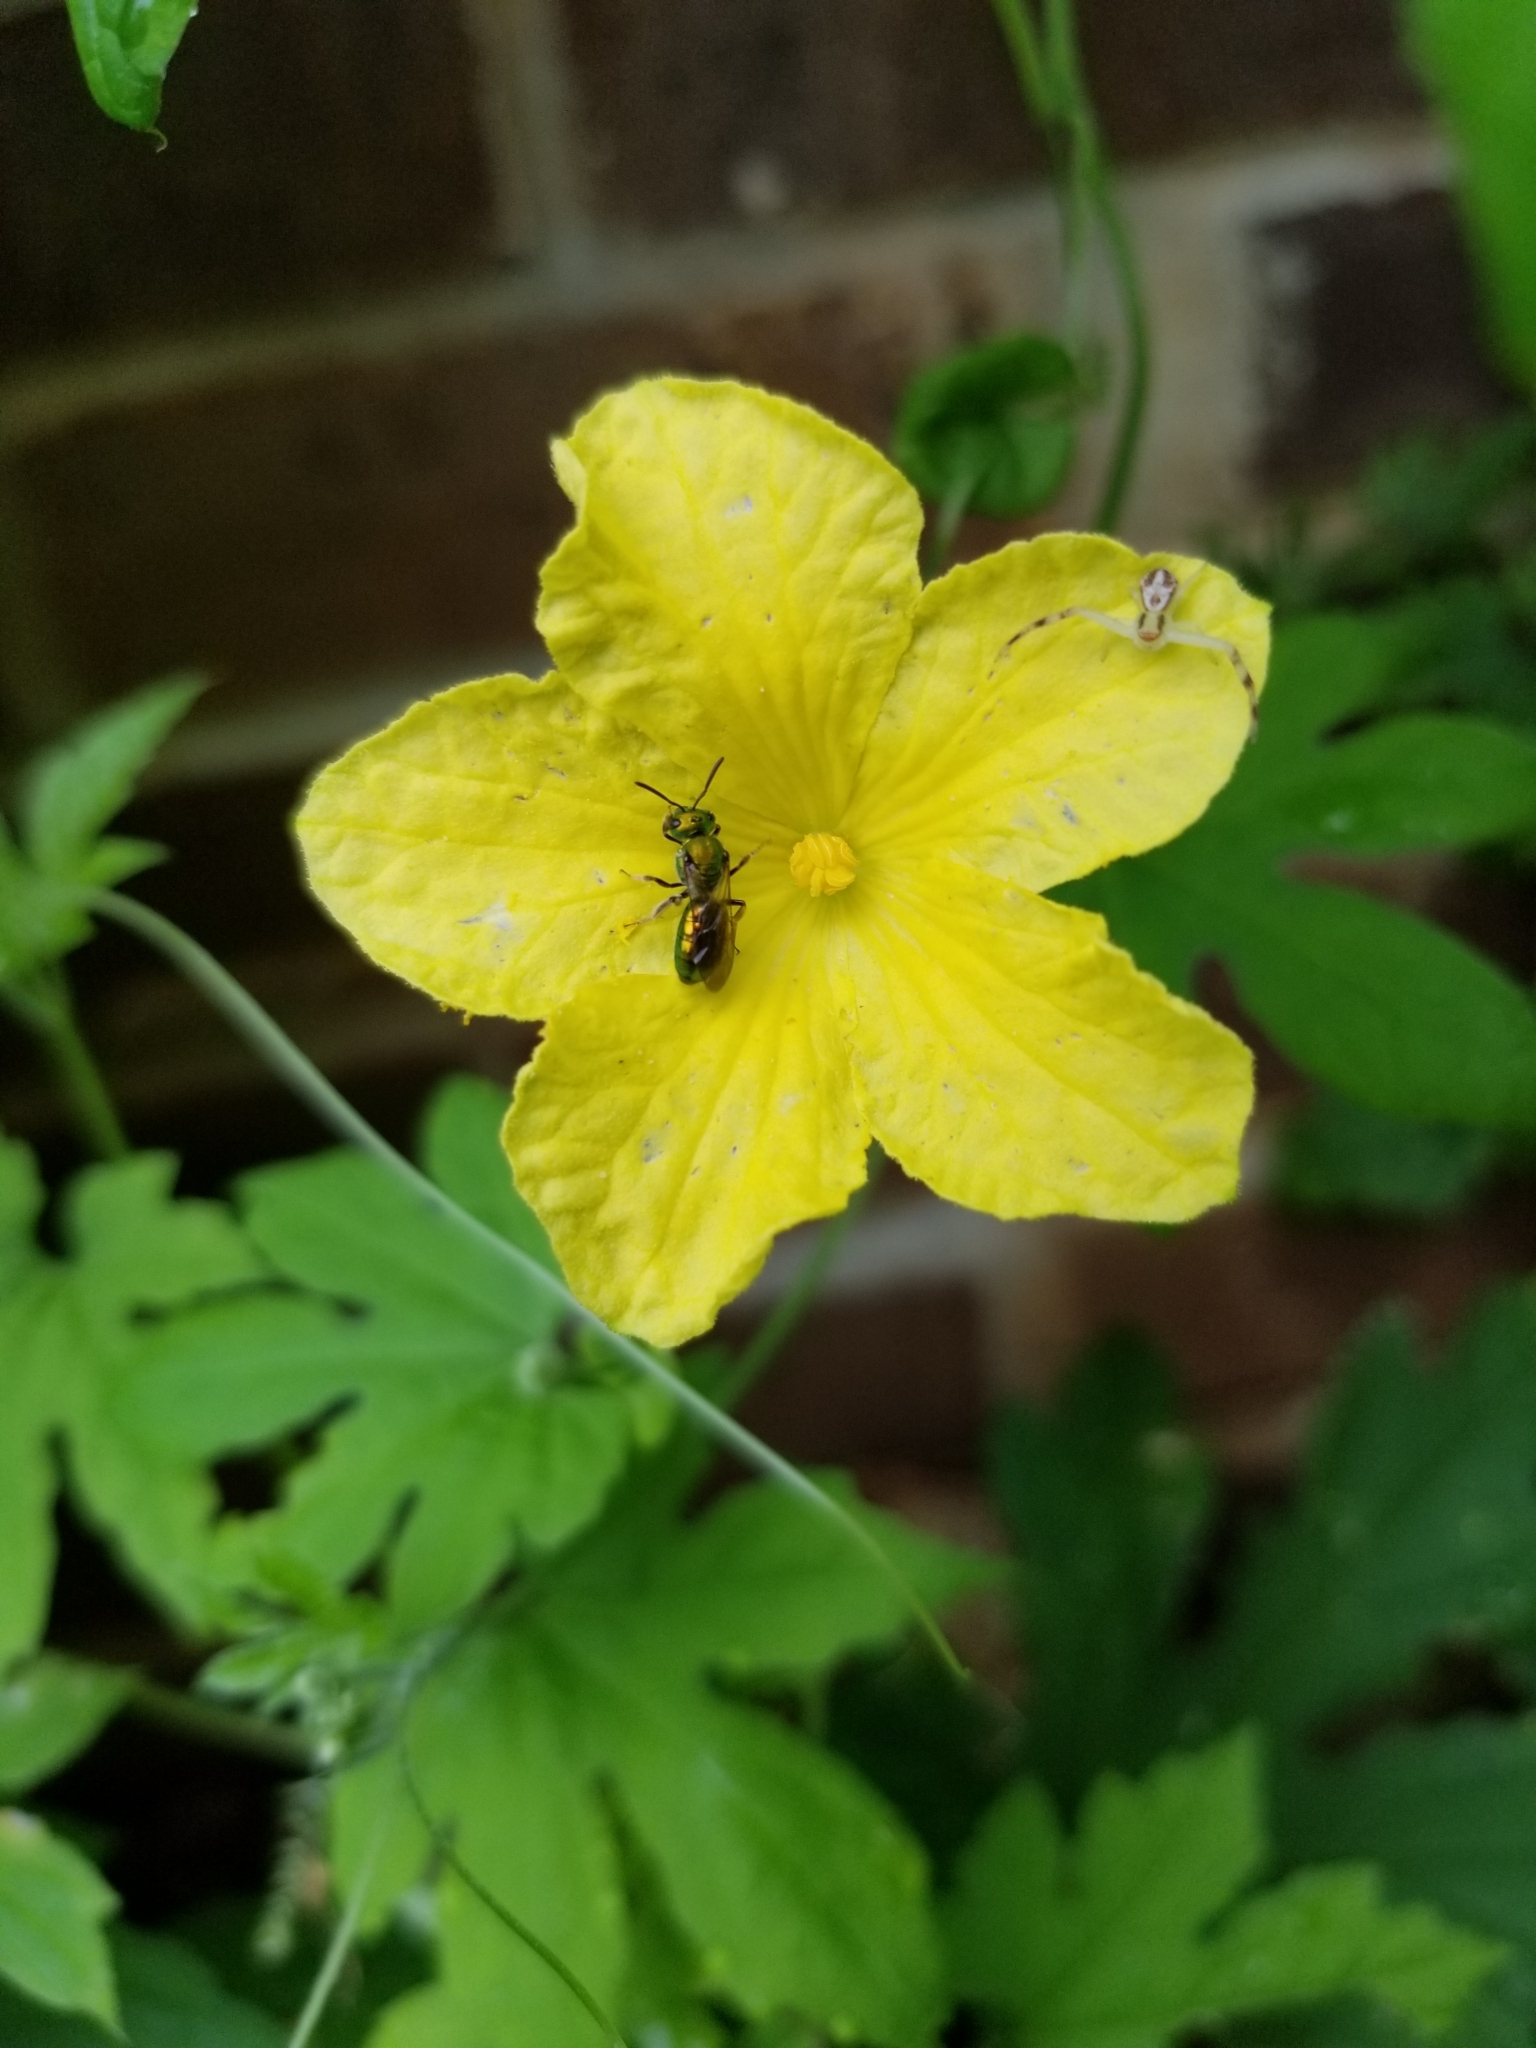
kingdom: Animalia
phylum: Arthropoda
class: Insecta
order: Hymenoptera
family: Halictidae
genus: Augochlora
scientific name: Augochlora pura
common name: Pure green sweat bee
